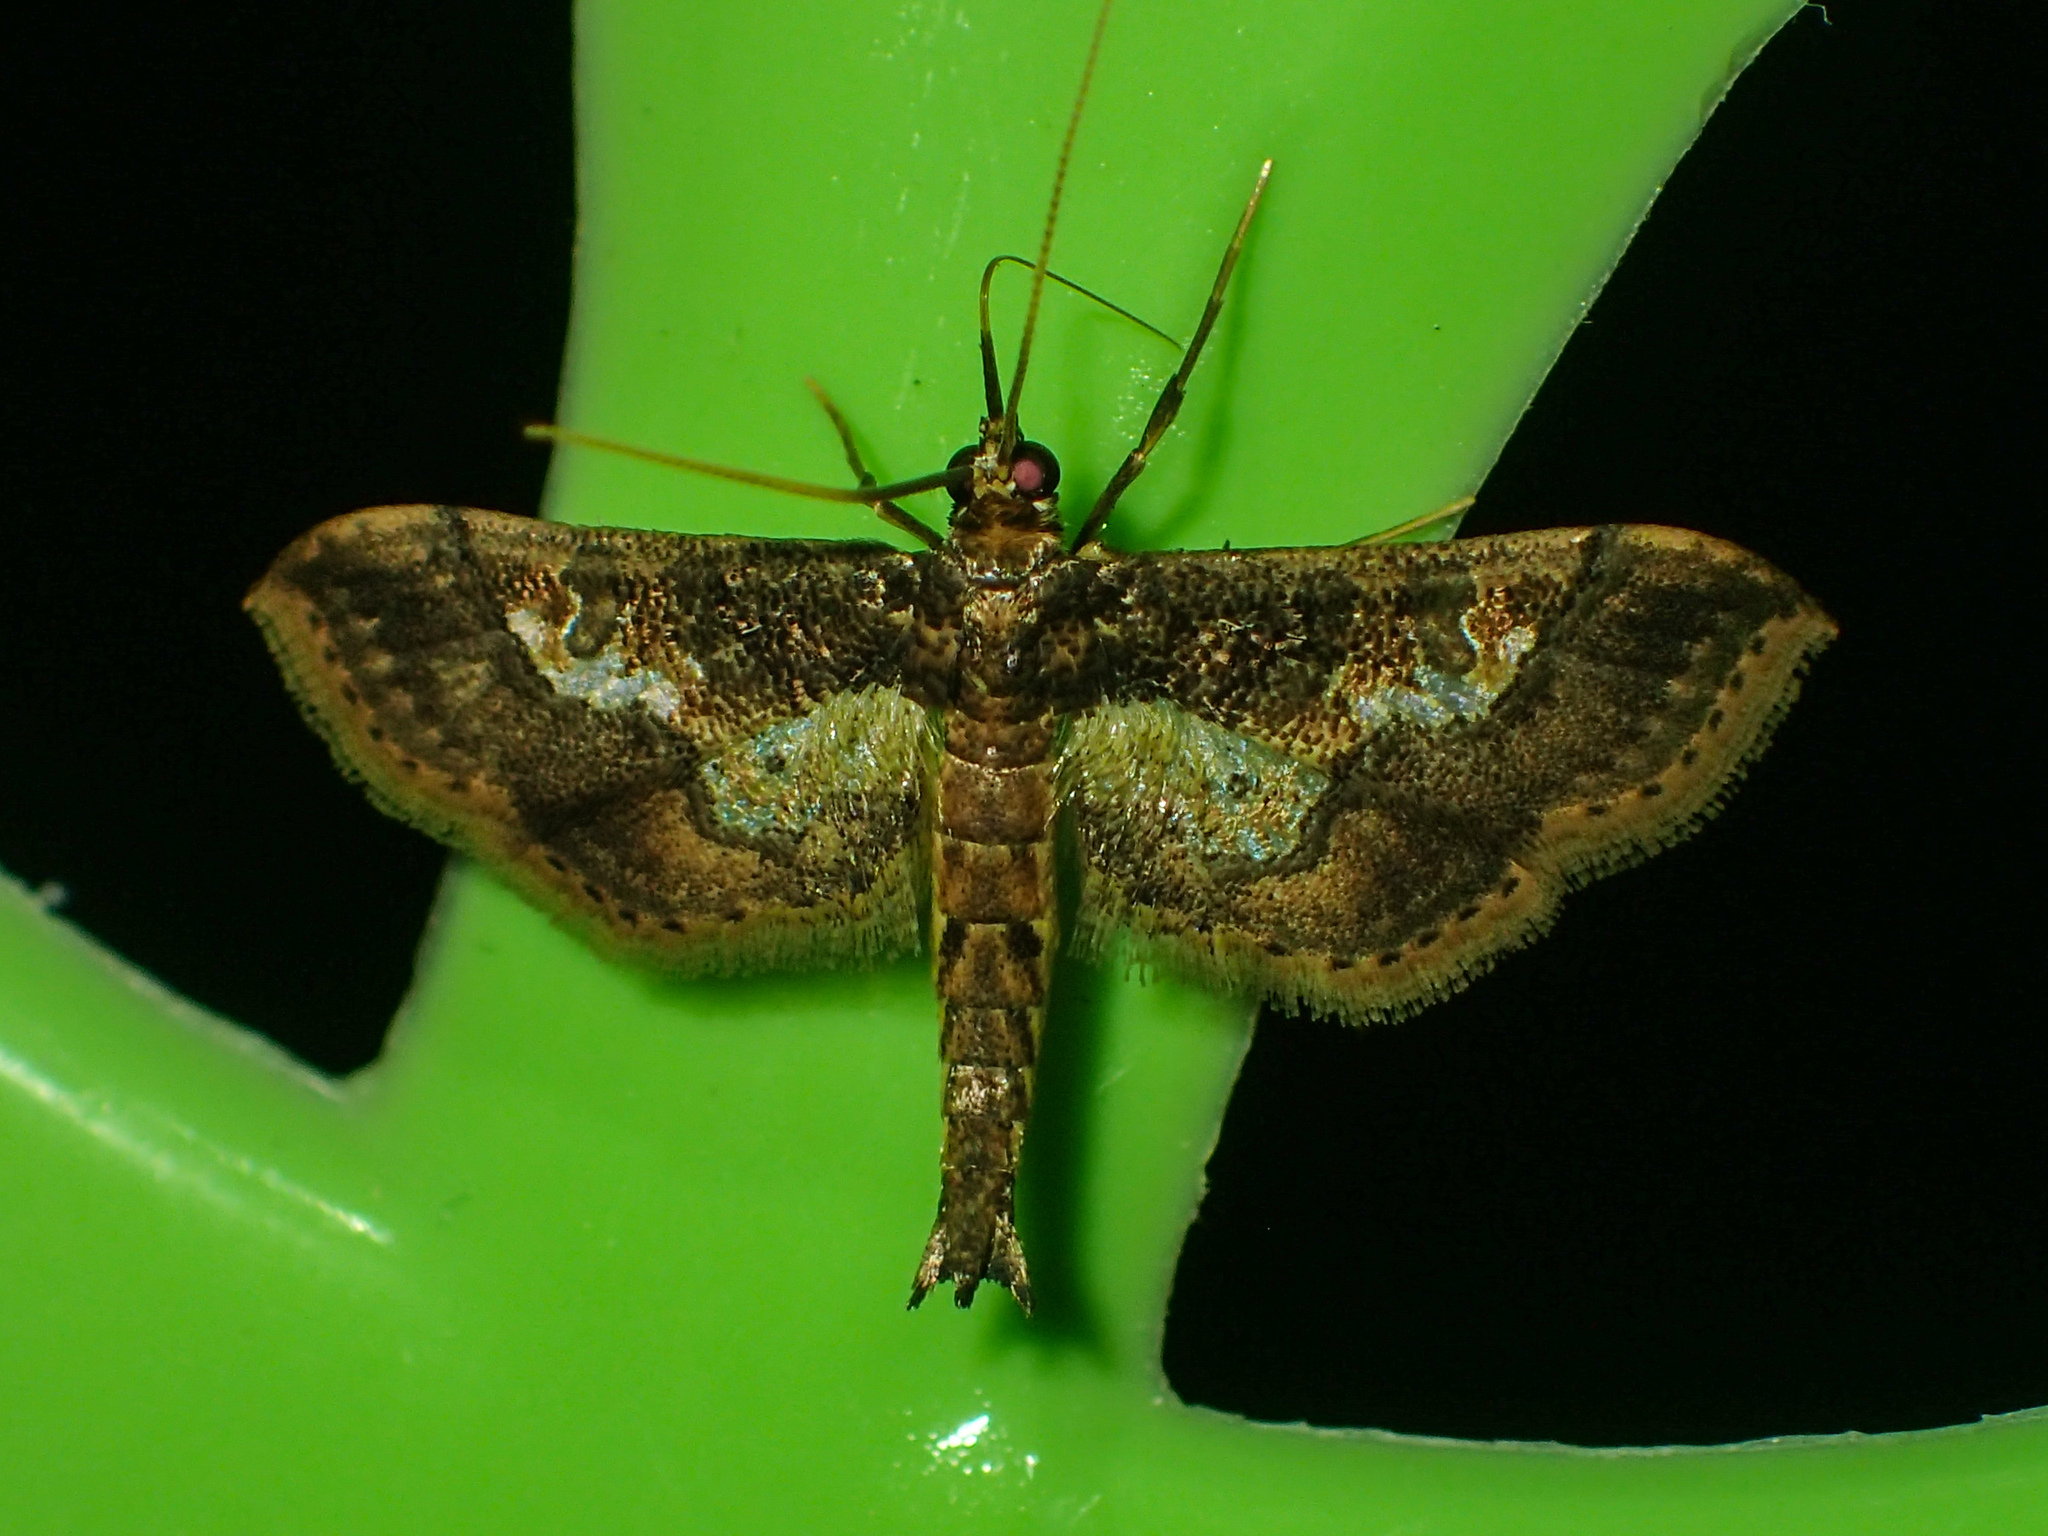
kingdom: Animalia
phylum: Arthropoda
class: Insecta
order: Lepidoptera
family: Crambidae
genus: Hydriris
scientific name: Hydriris ornatalis
